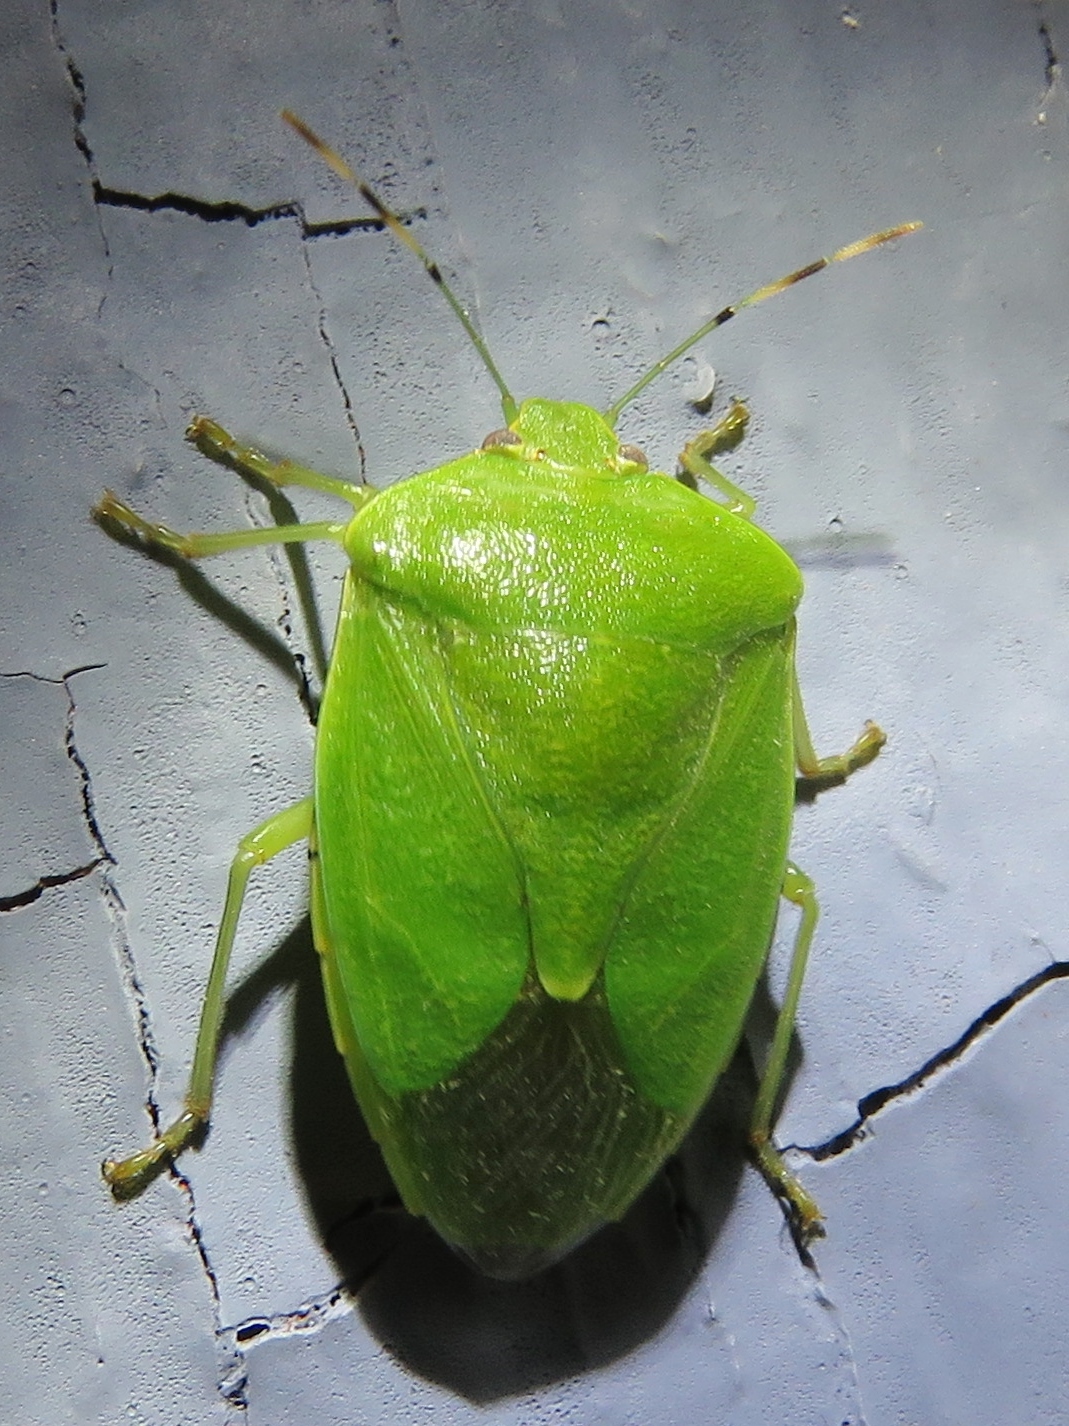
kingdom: Animalia
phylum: Arthropoda
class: Insecta
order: Hemiptera
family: Pentatomidae
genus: Chinavia
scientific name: Chinavia hilaris
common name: Green stink bug
